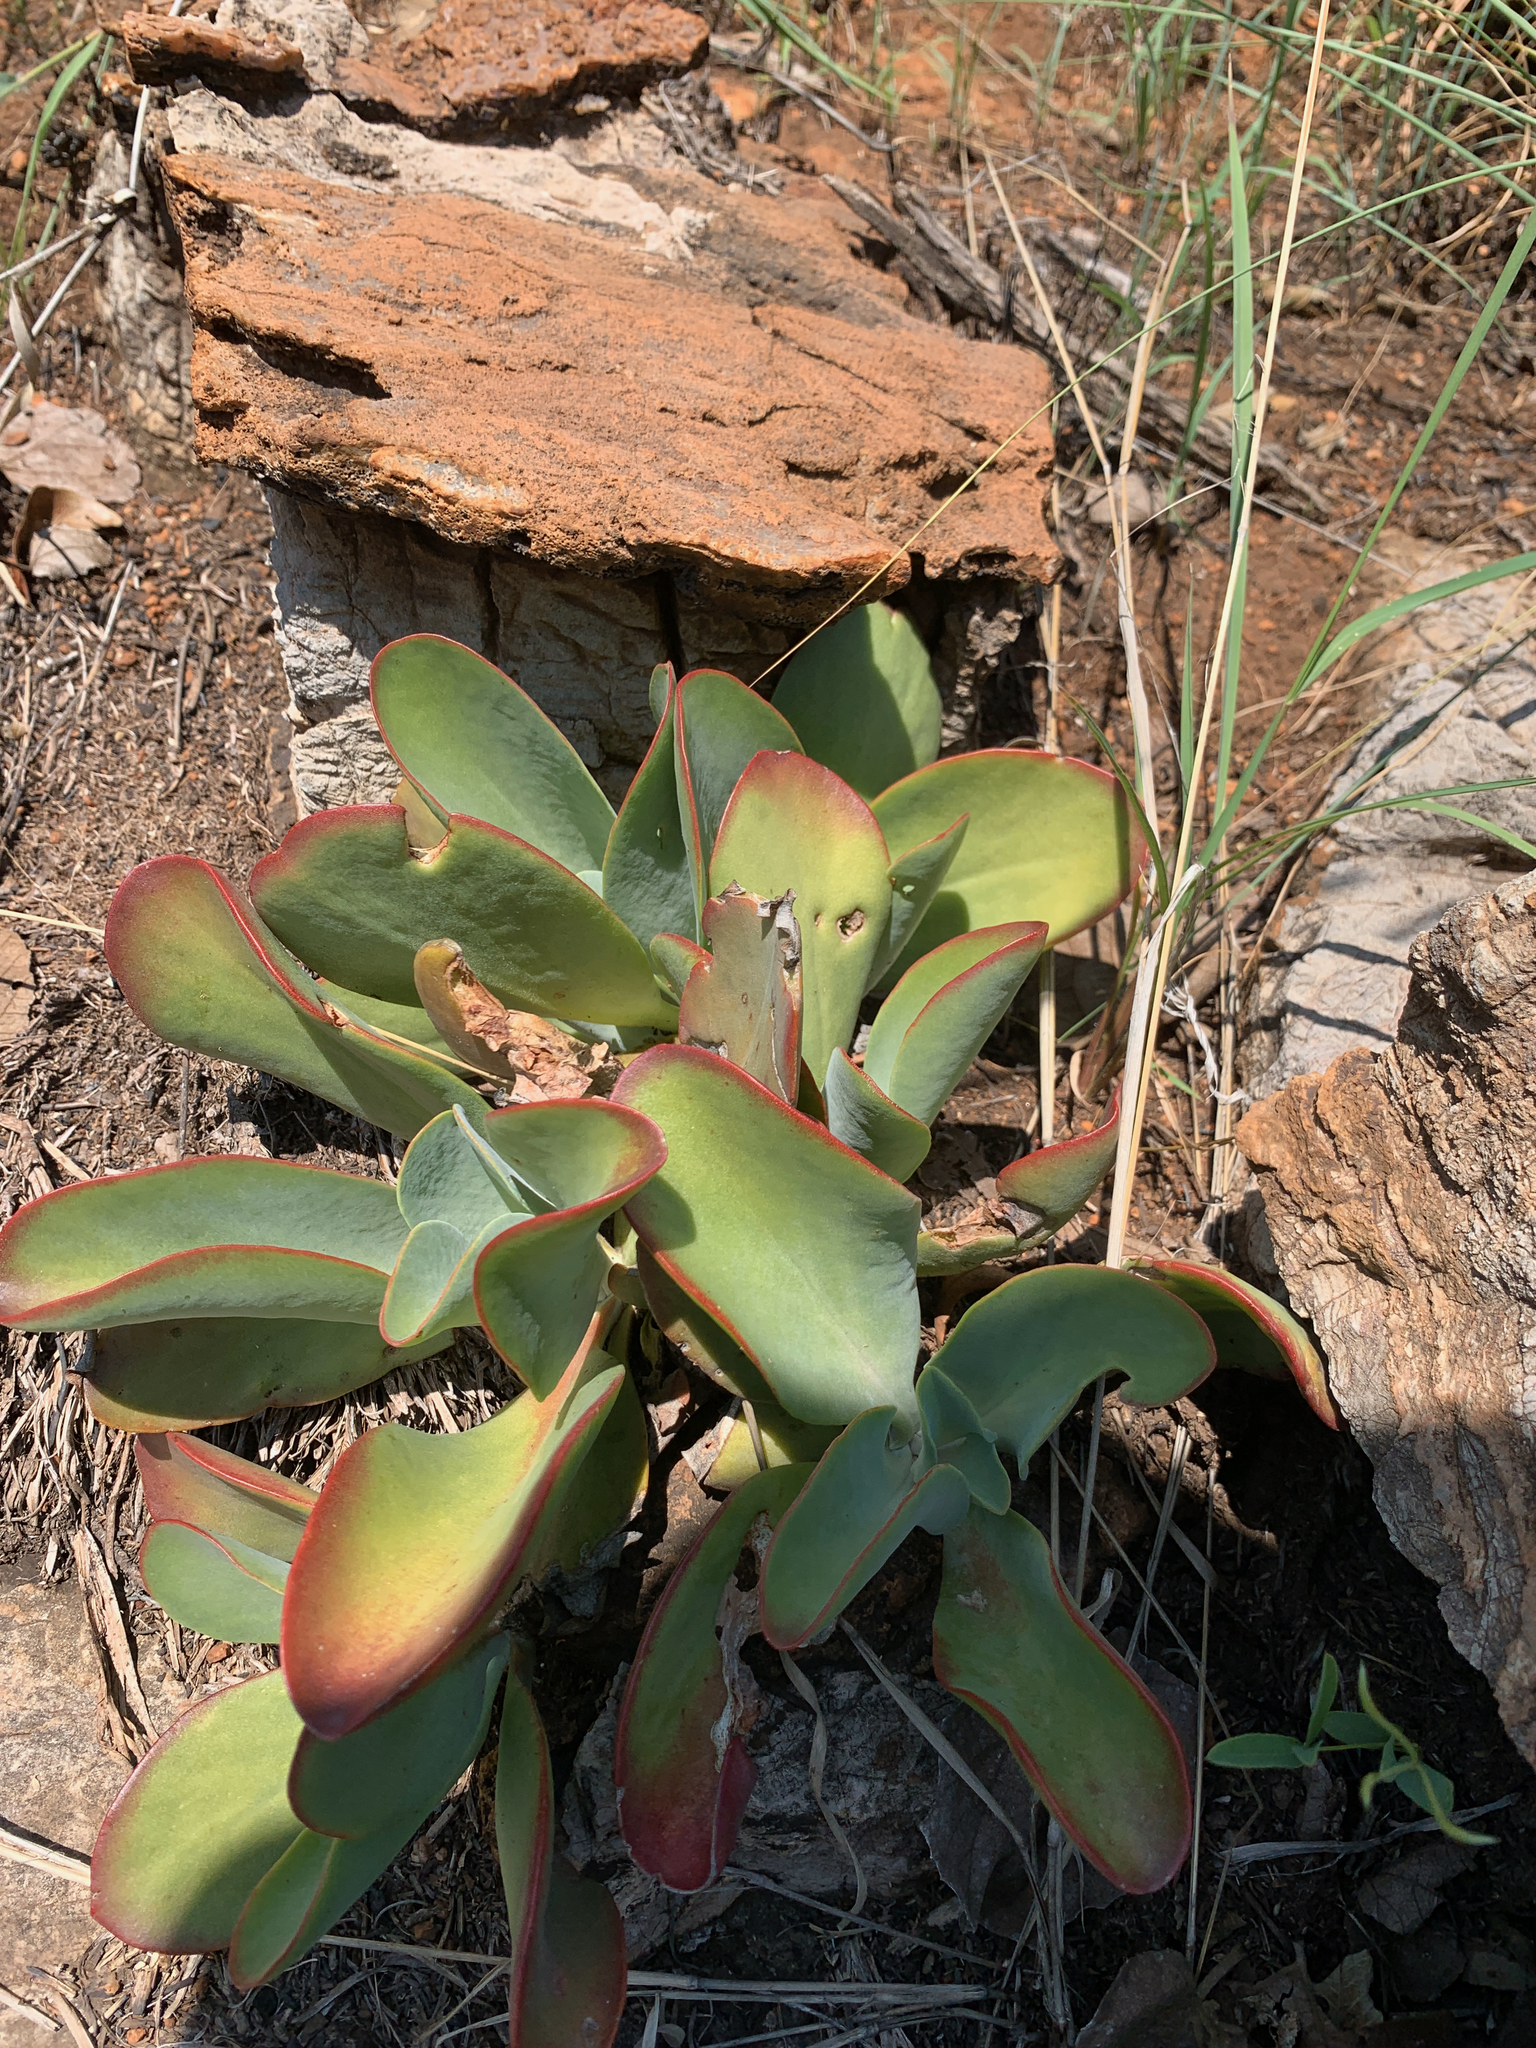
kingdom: Plantae
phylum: Tracheophyta
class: Magnoliopsida
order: Saxifragales
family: Crassulaceae
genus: Kalanchoe
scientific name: Kalanchoe thyrsiflora
